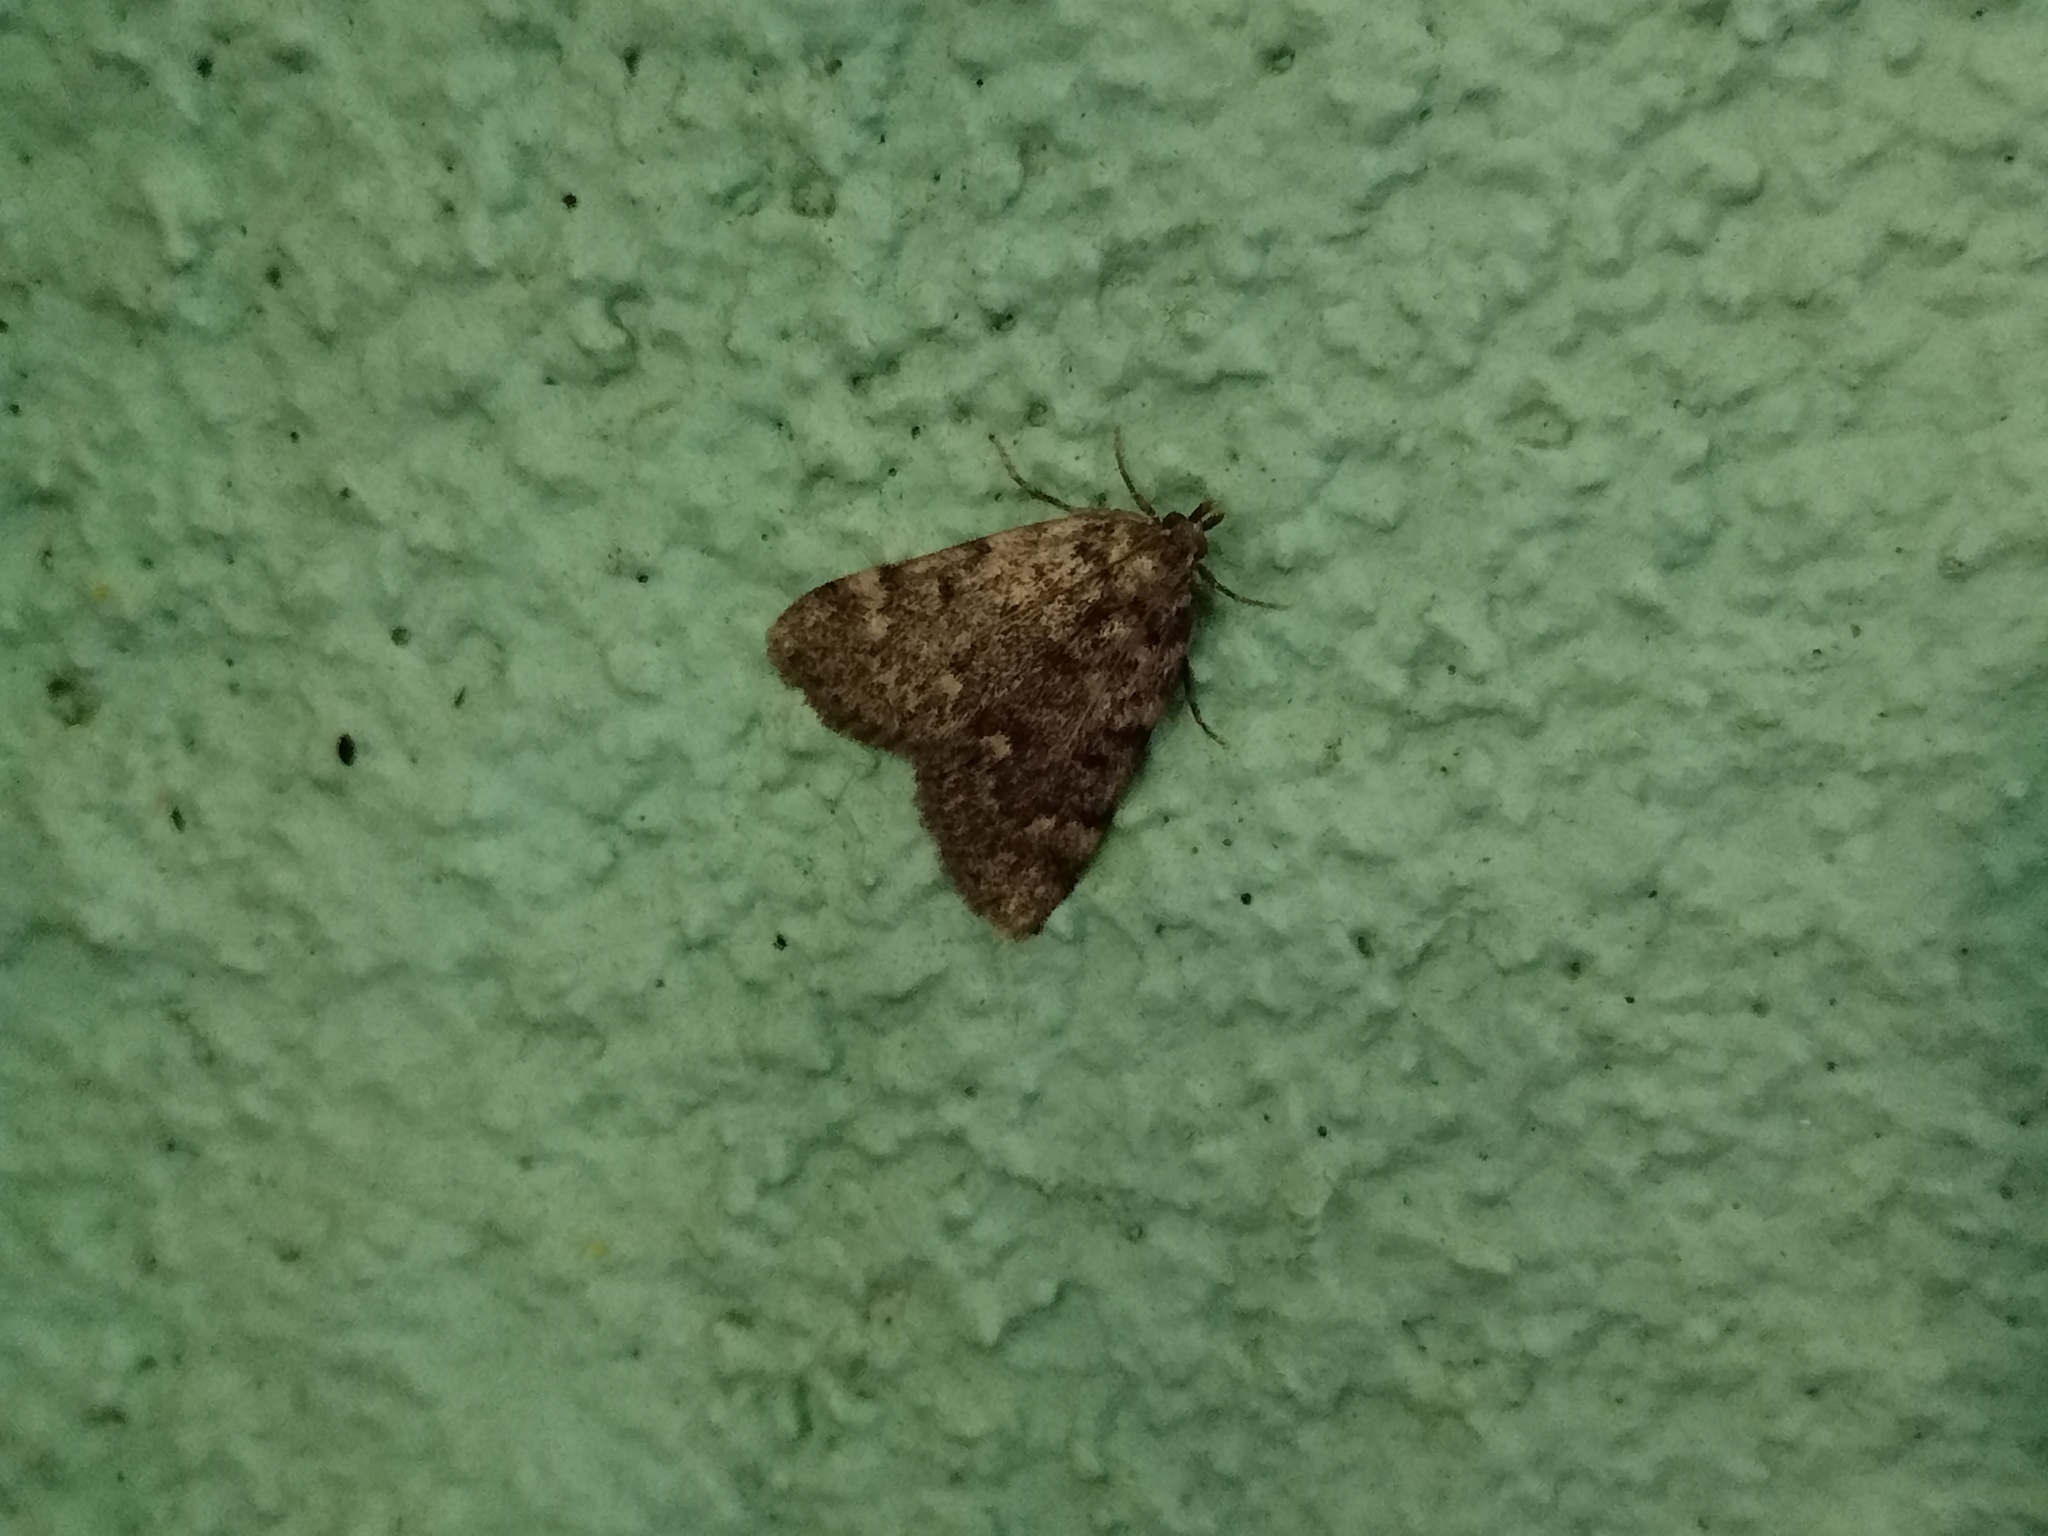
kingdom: Animalia
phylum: Arthropoda
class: Insecta
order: Lepidoptera
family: Pyralidae
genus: Aglossa
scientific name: Aglossa pinguinalis
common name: Large tabby
